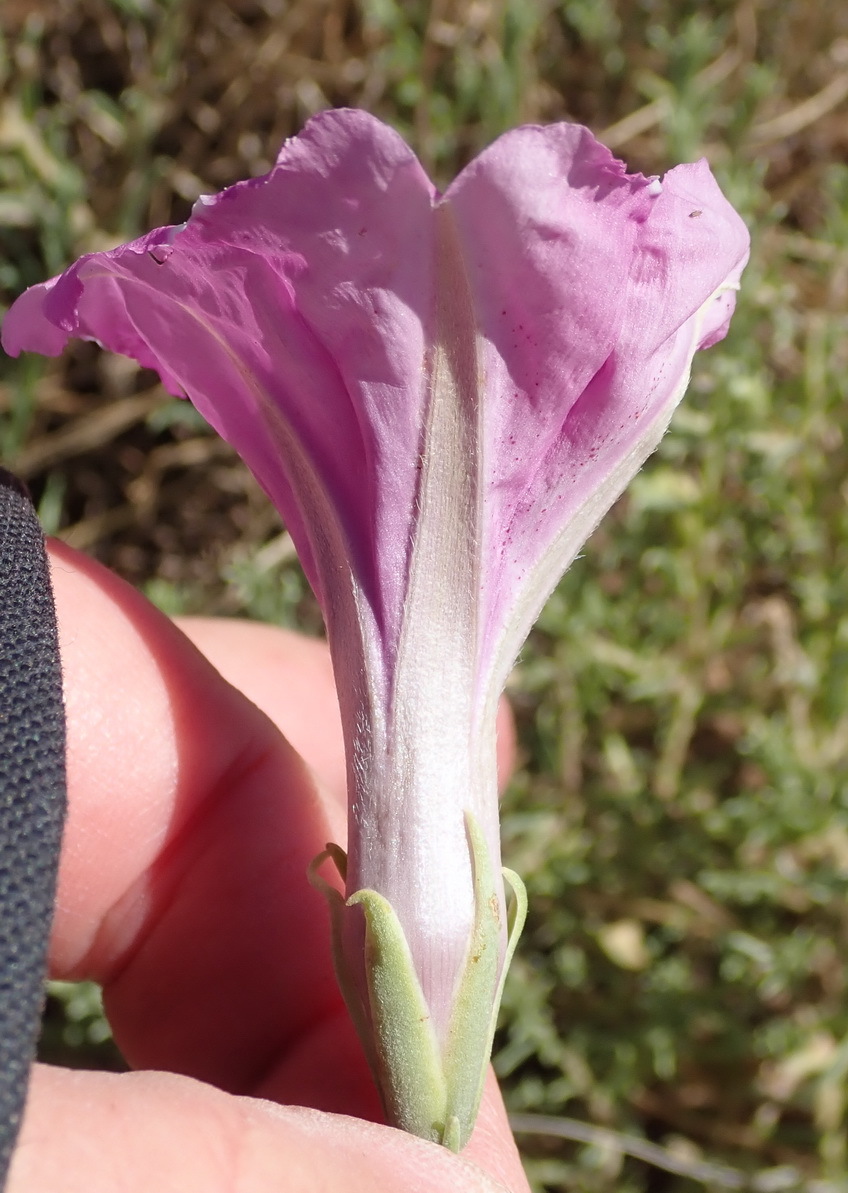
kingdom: Plantae
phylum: Tracheophyta
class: Magnoliopsida
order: Solanales
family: Convolvulaceae
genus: Ipomoea
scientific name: Ipomoea oenotheroides
